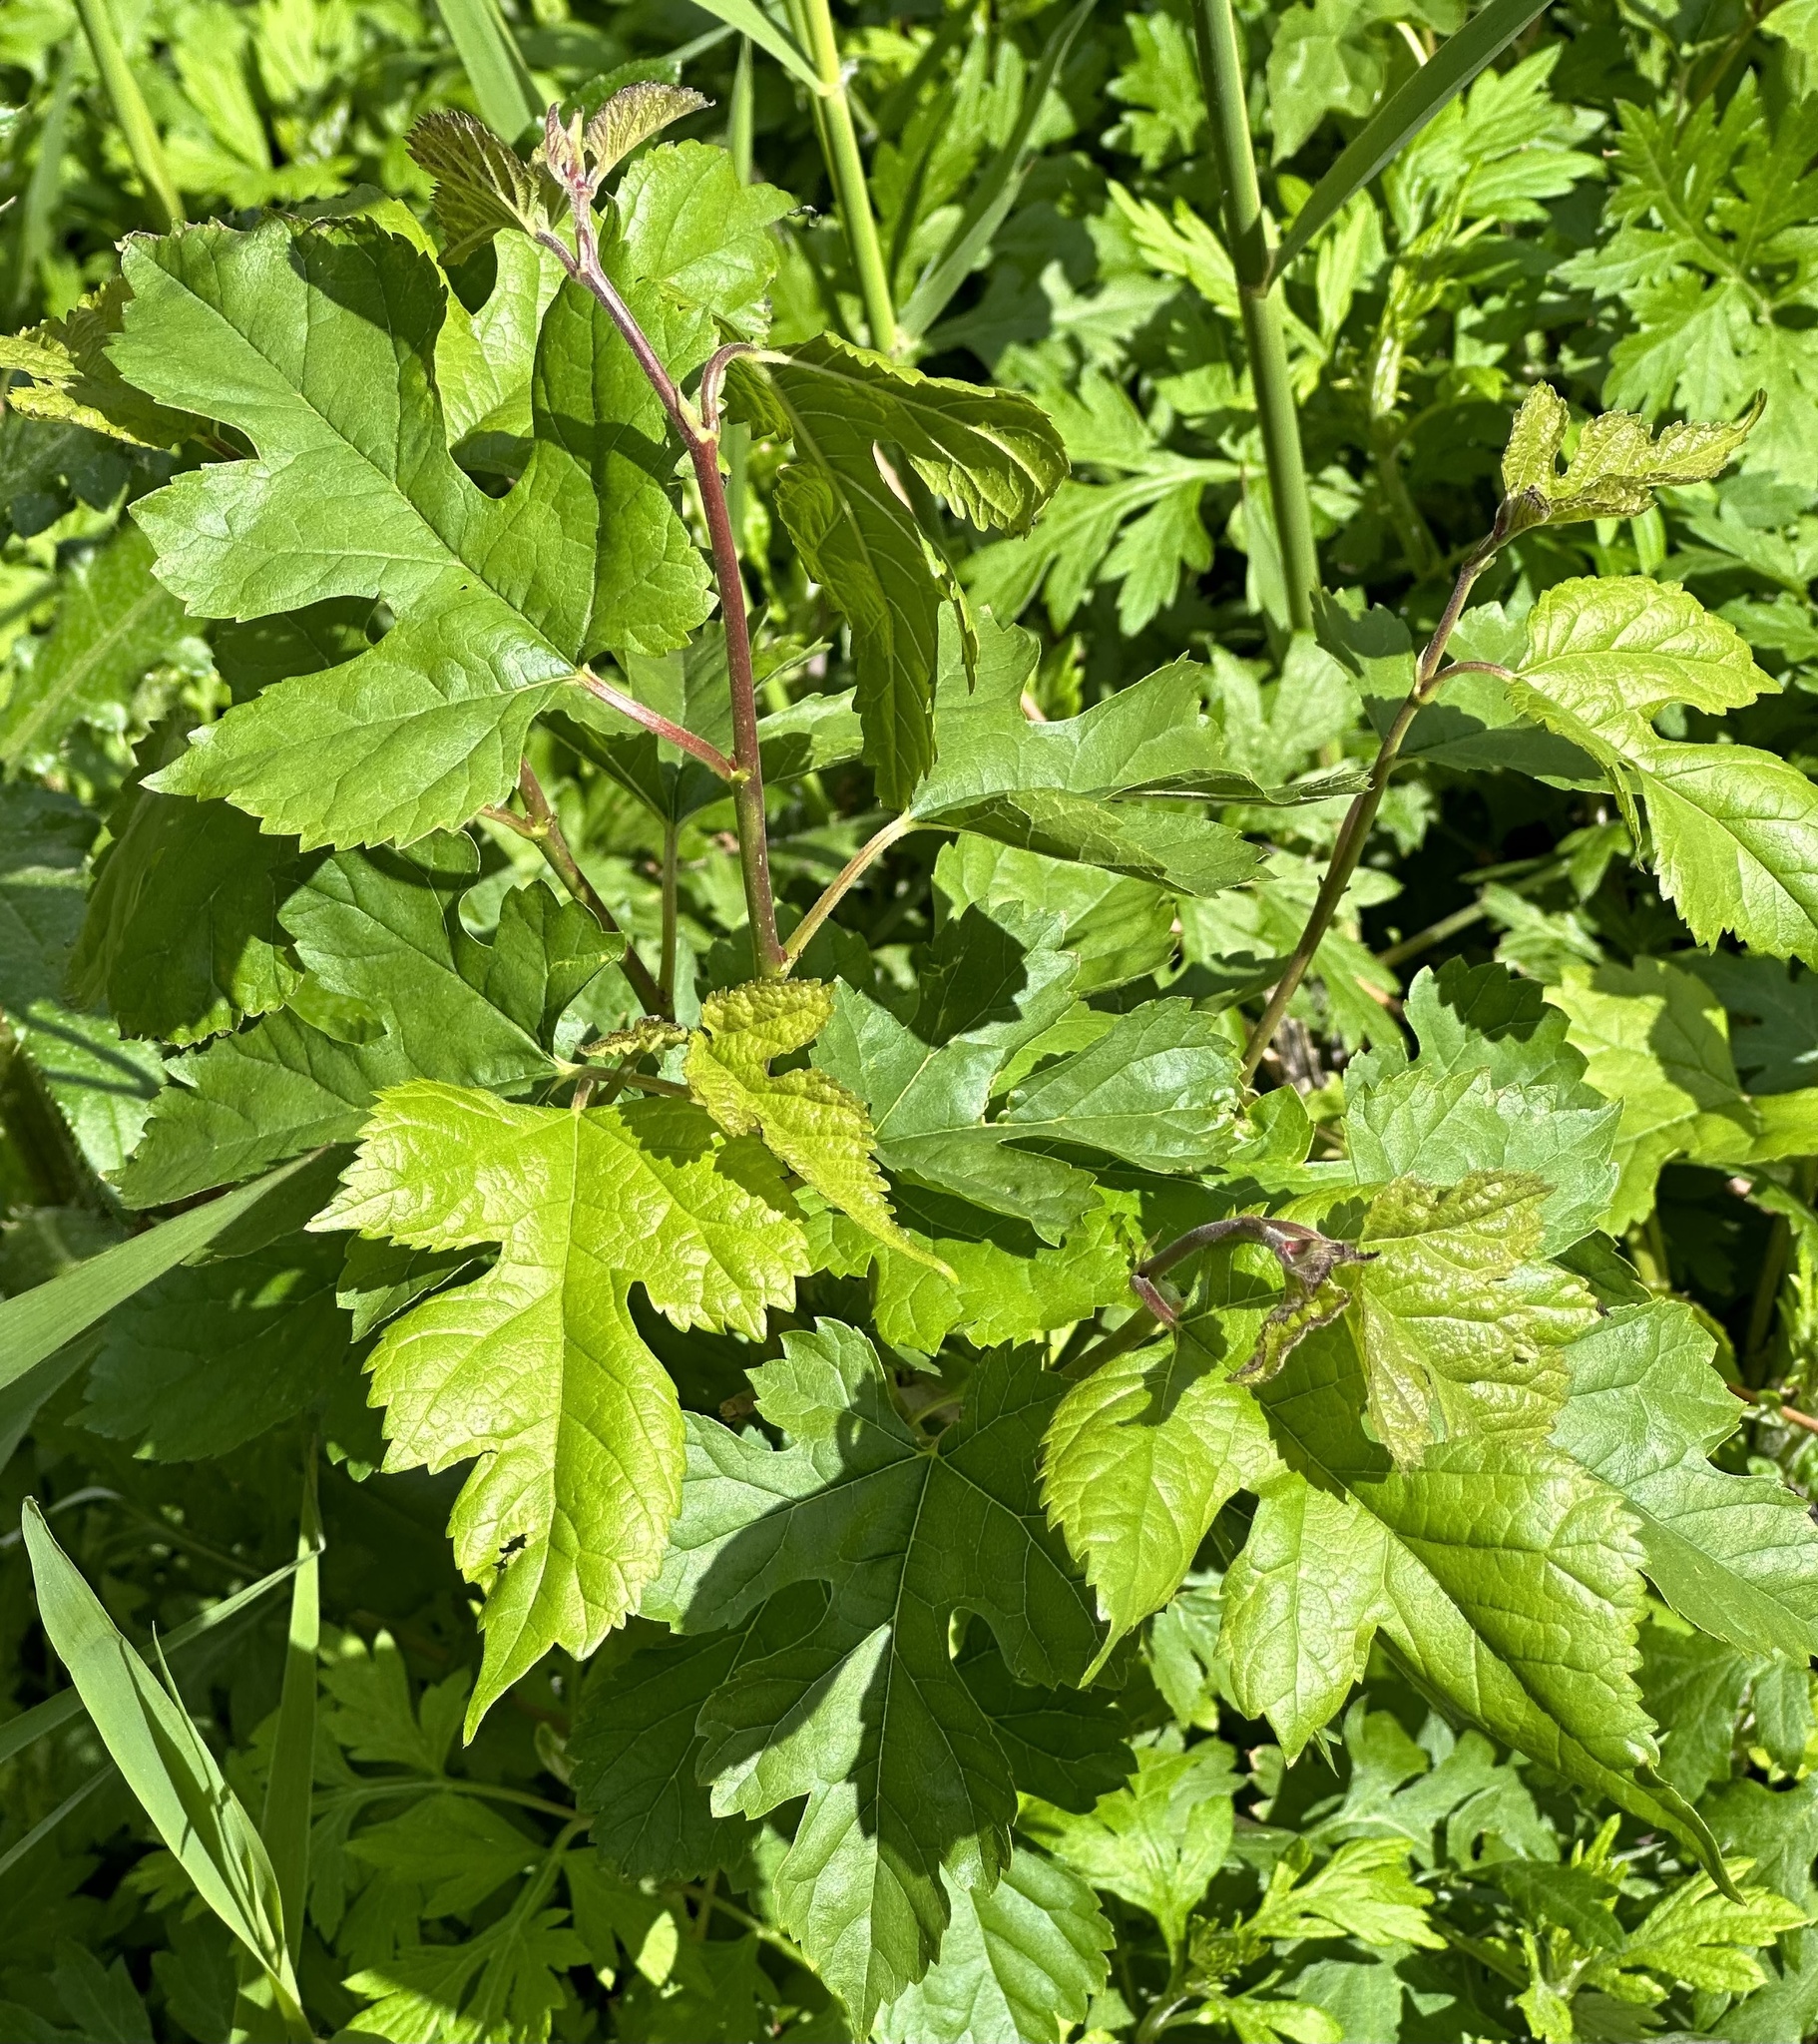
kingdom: Plantae
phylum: Tracheophyta
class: Magnoliopsida
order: Rosales
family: Moraceae
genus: Morus
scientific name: Morus alba
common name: White mulberry
